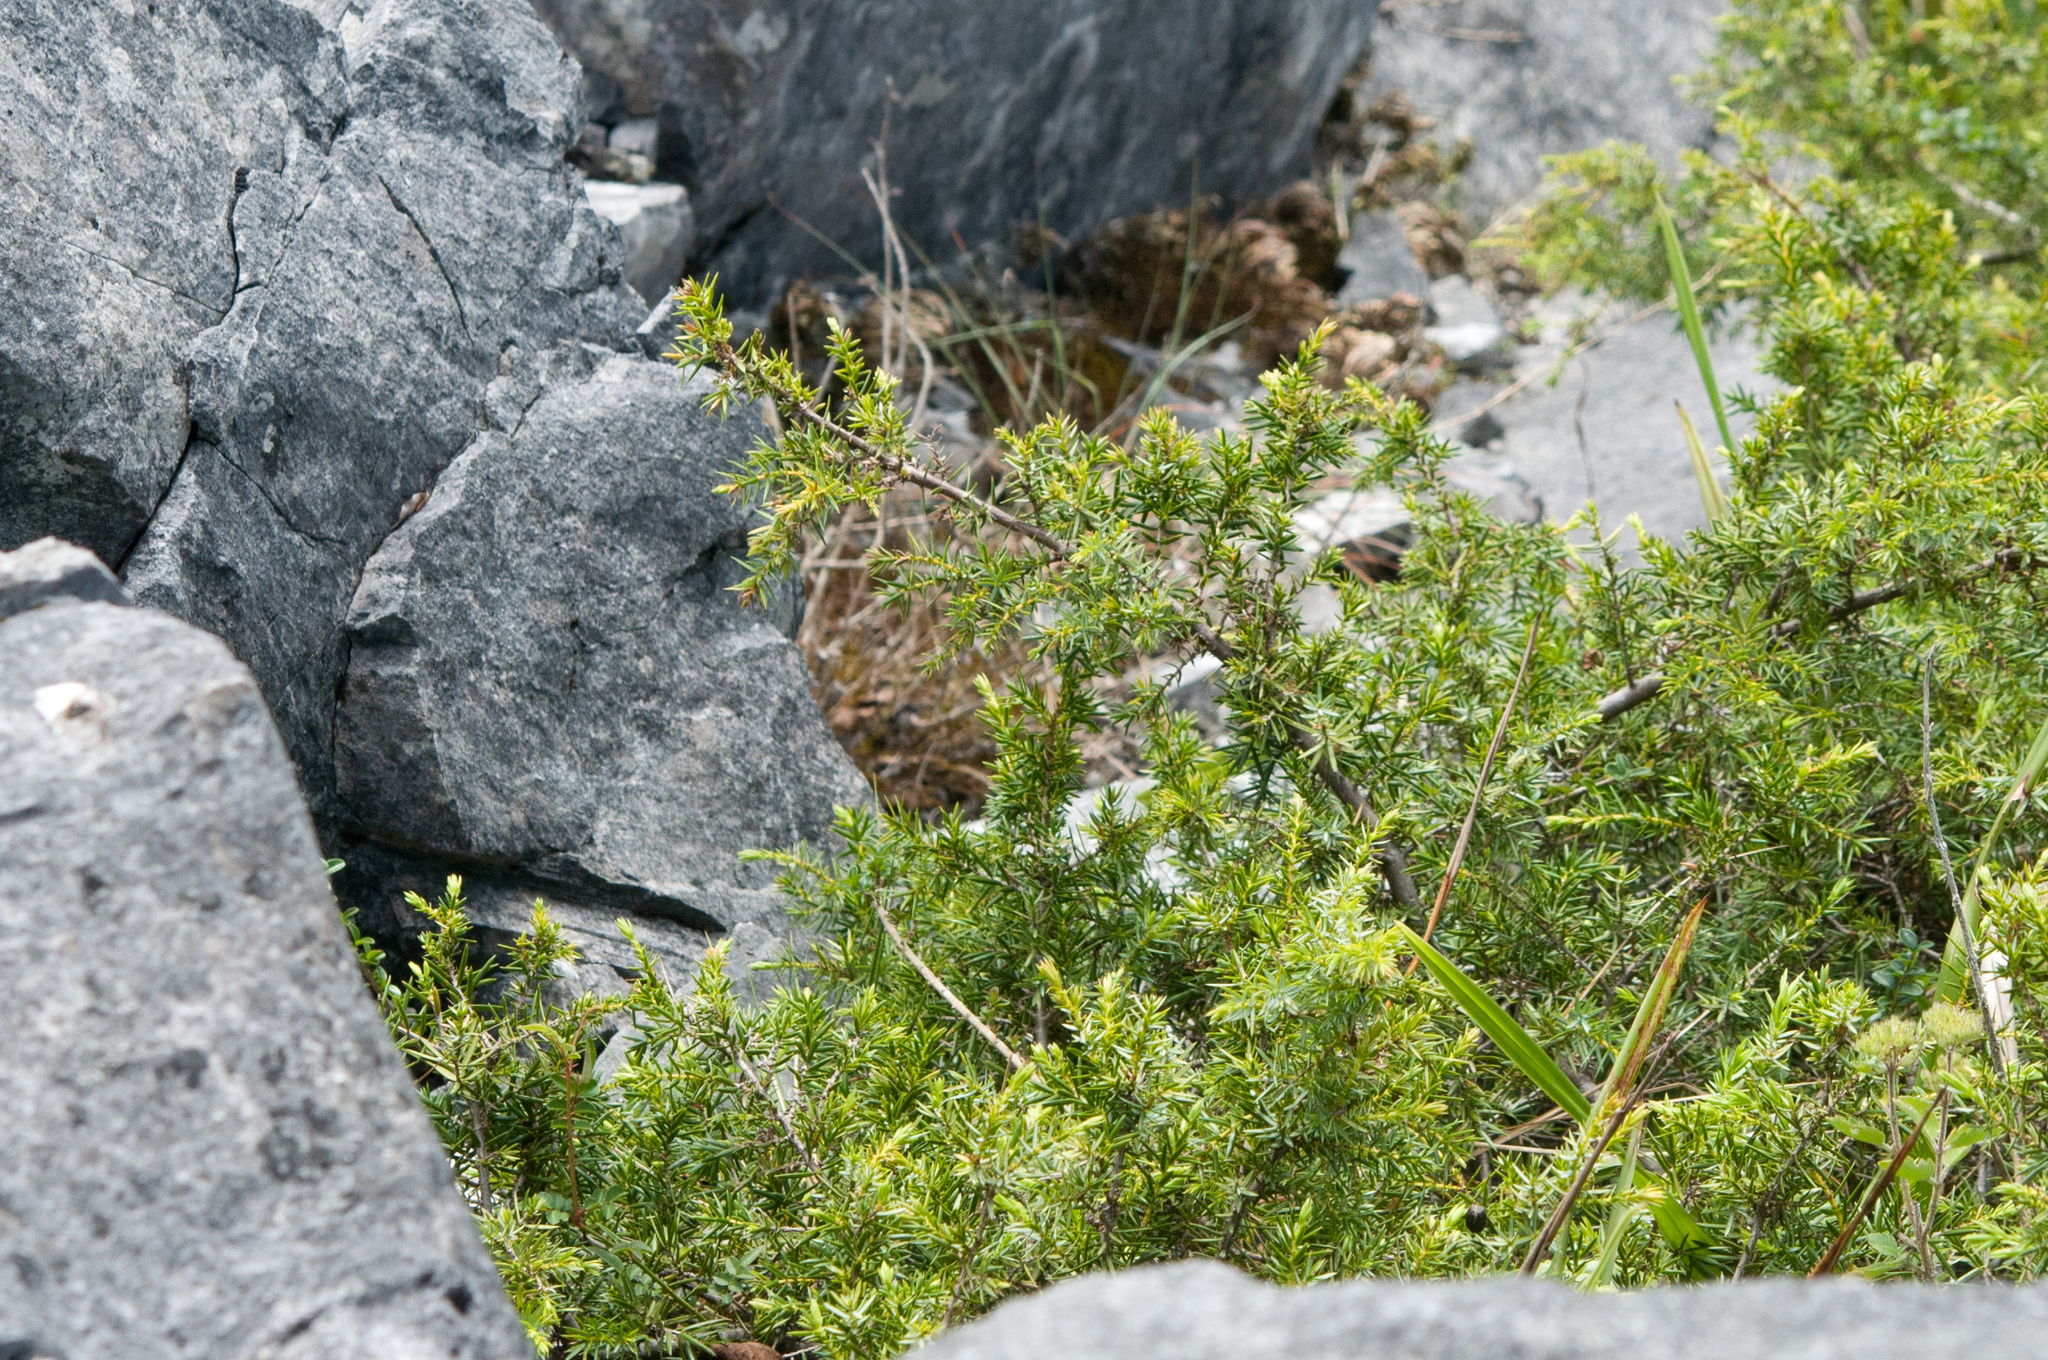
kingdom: Plantae
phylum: Tracheophyta
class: Pinopsida
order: Pinales
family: Cupressaceae
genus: Juniperus
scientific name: Juniperus formosana
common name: Formosan juniper
